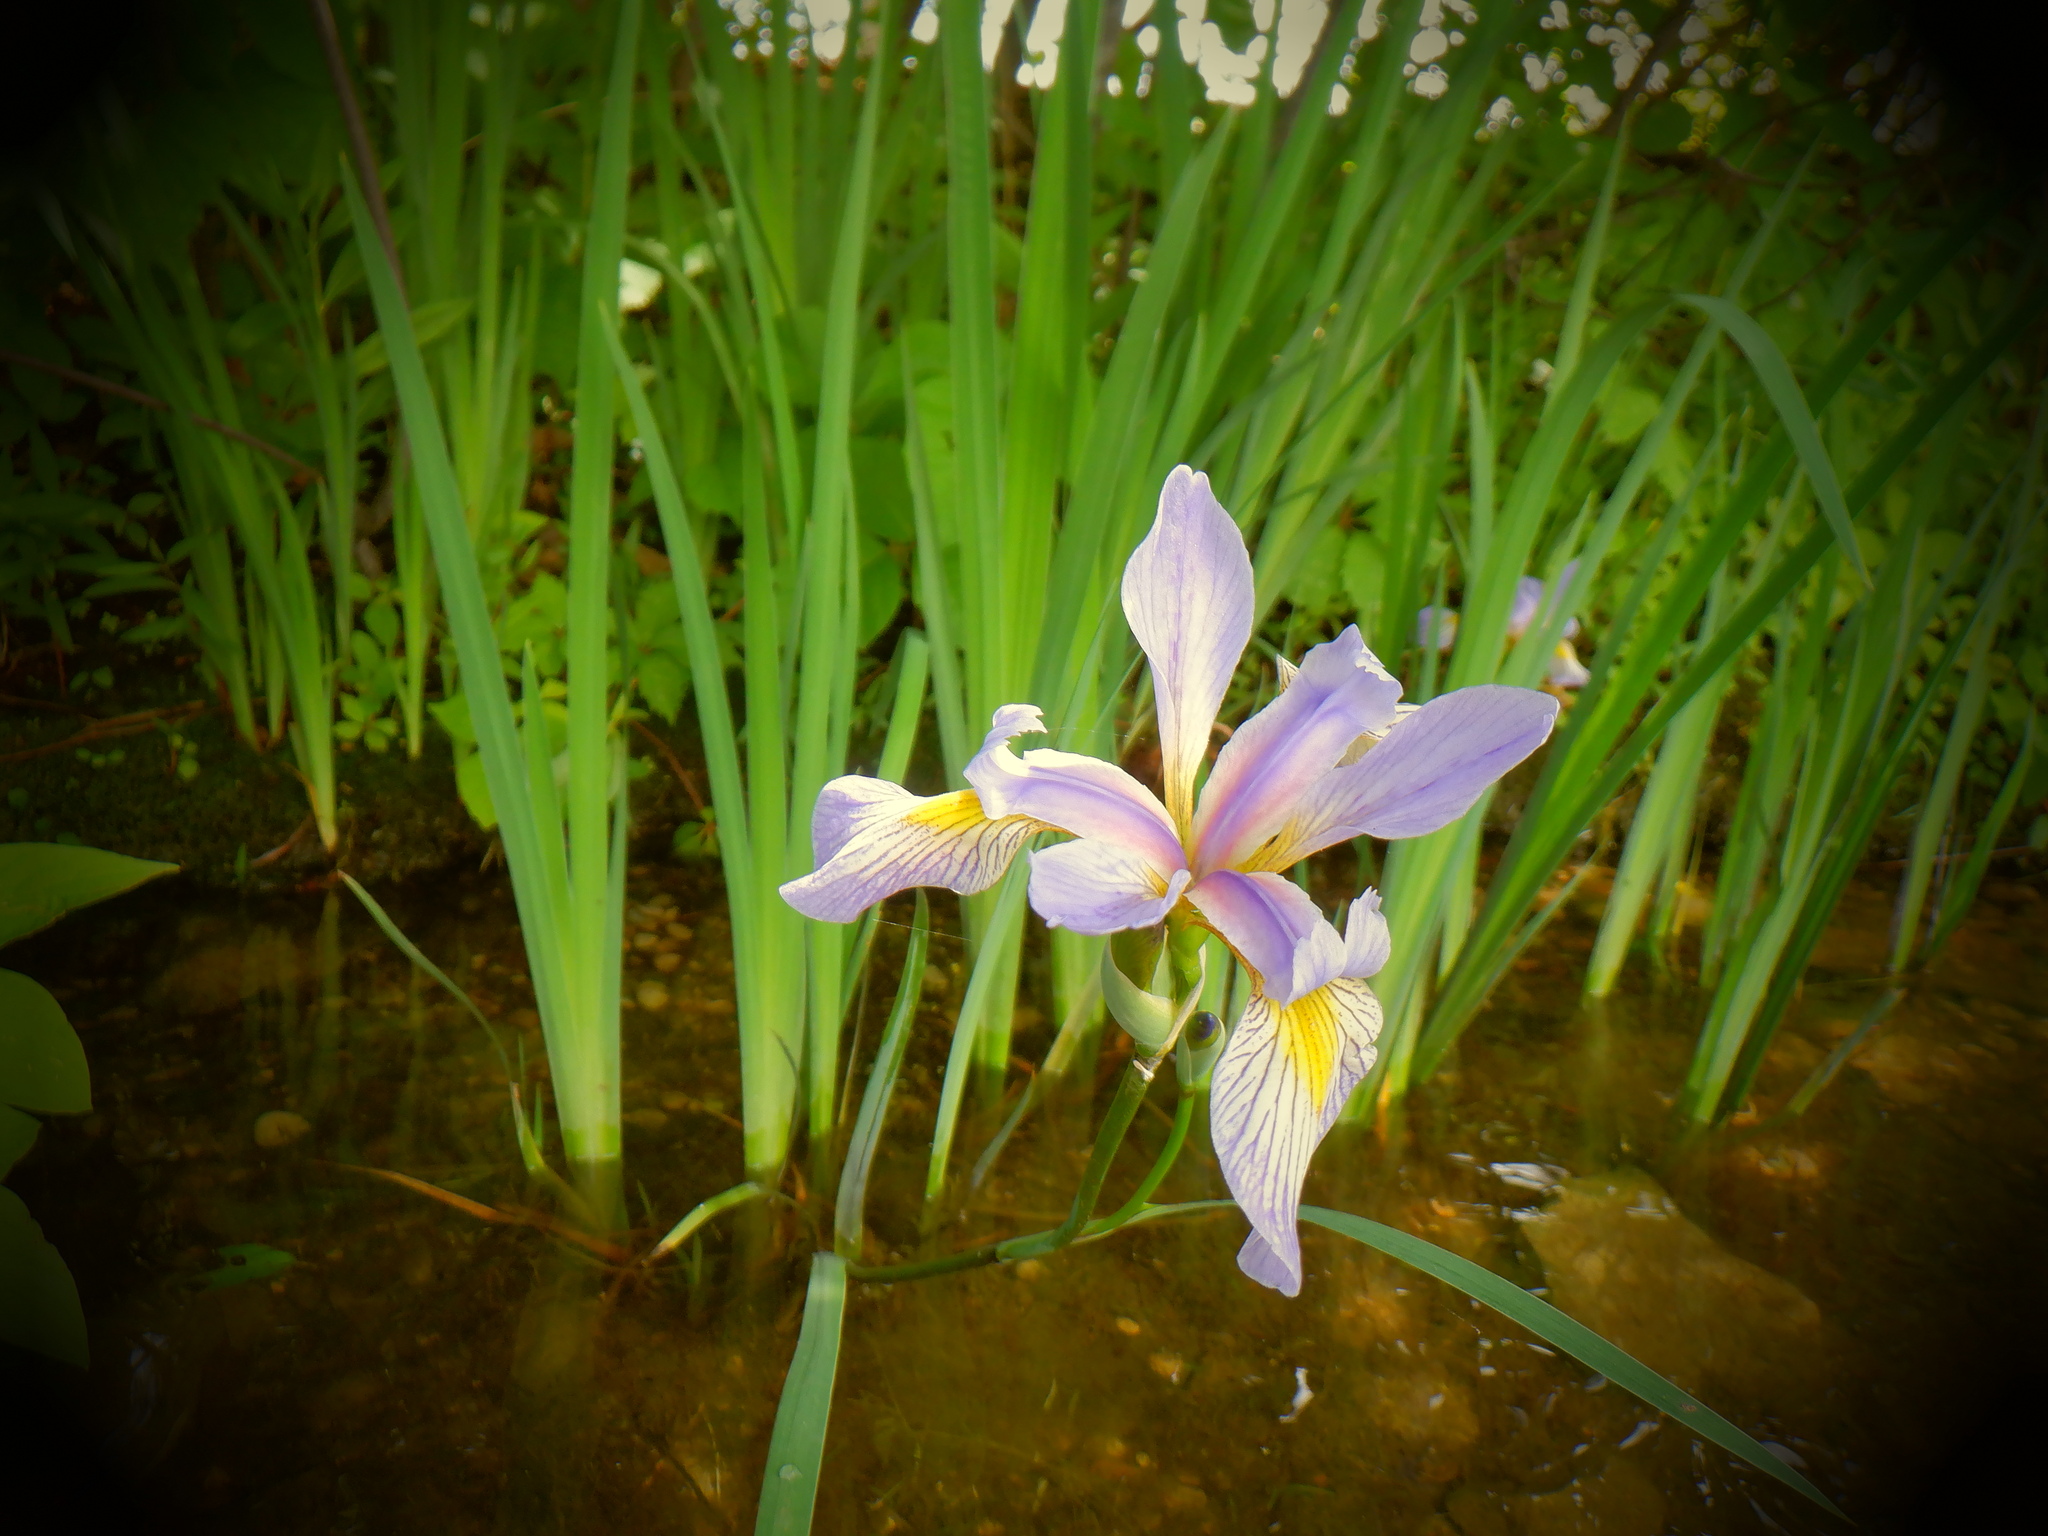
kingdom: Plantae
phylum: Tracheophyta
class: Liliopsida
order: Asparagales
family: Iridaceae
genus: Iris
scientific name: Iris virginica
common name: Southern blue flag
